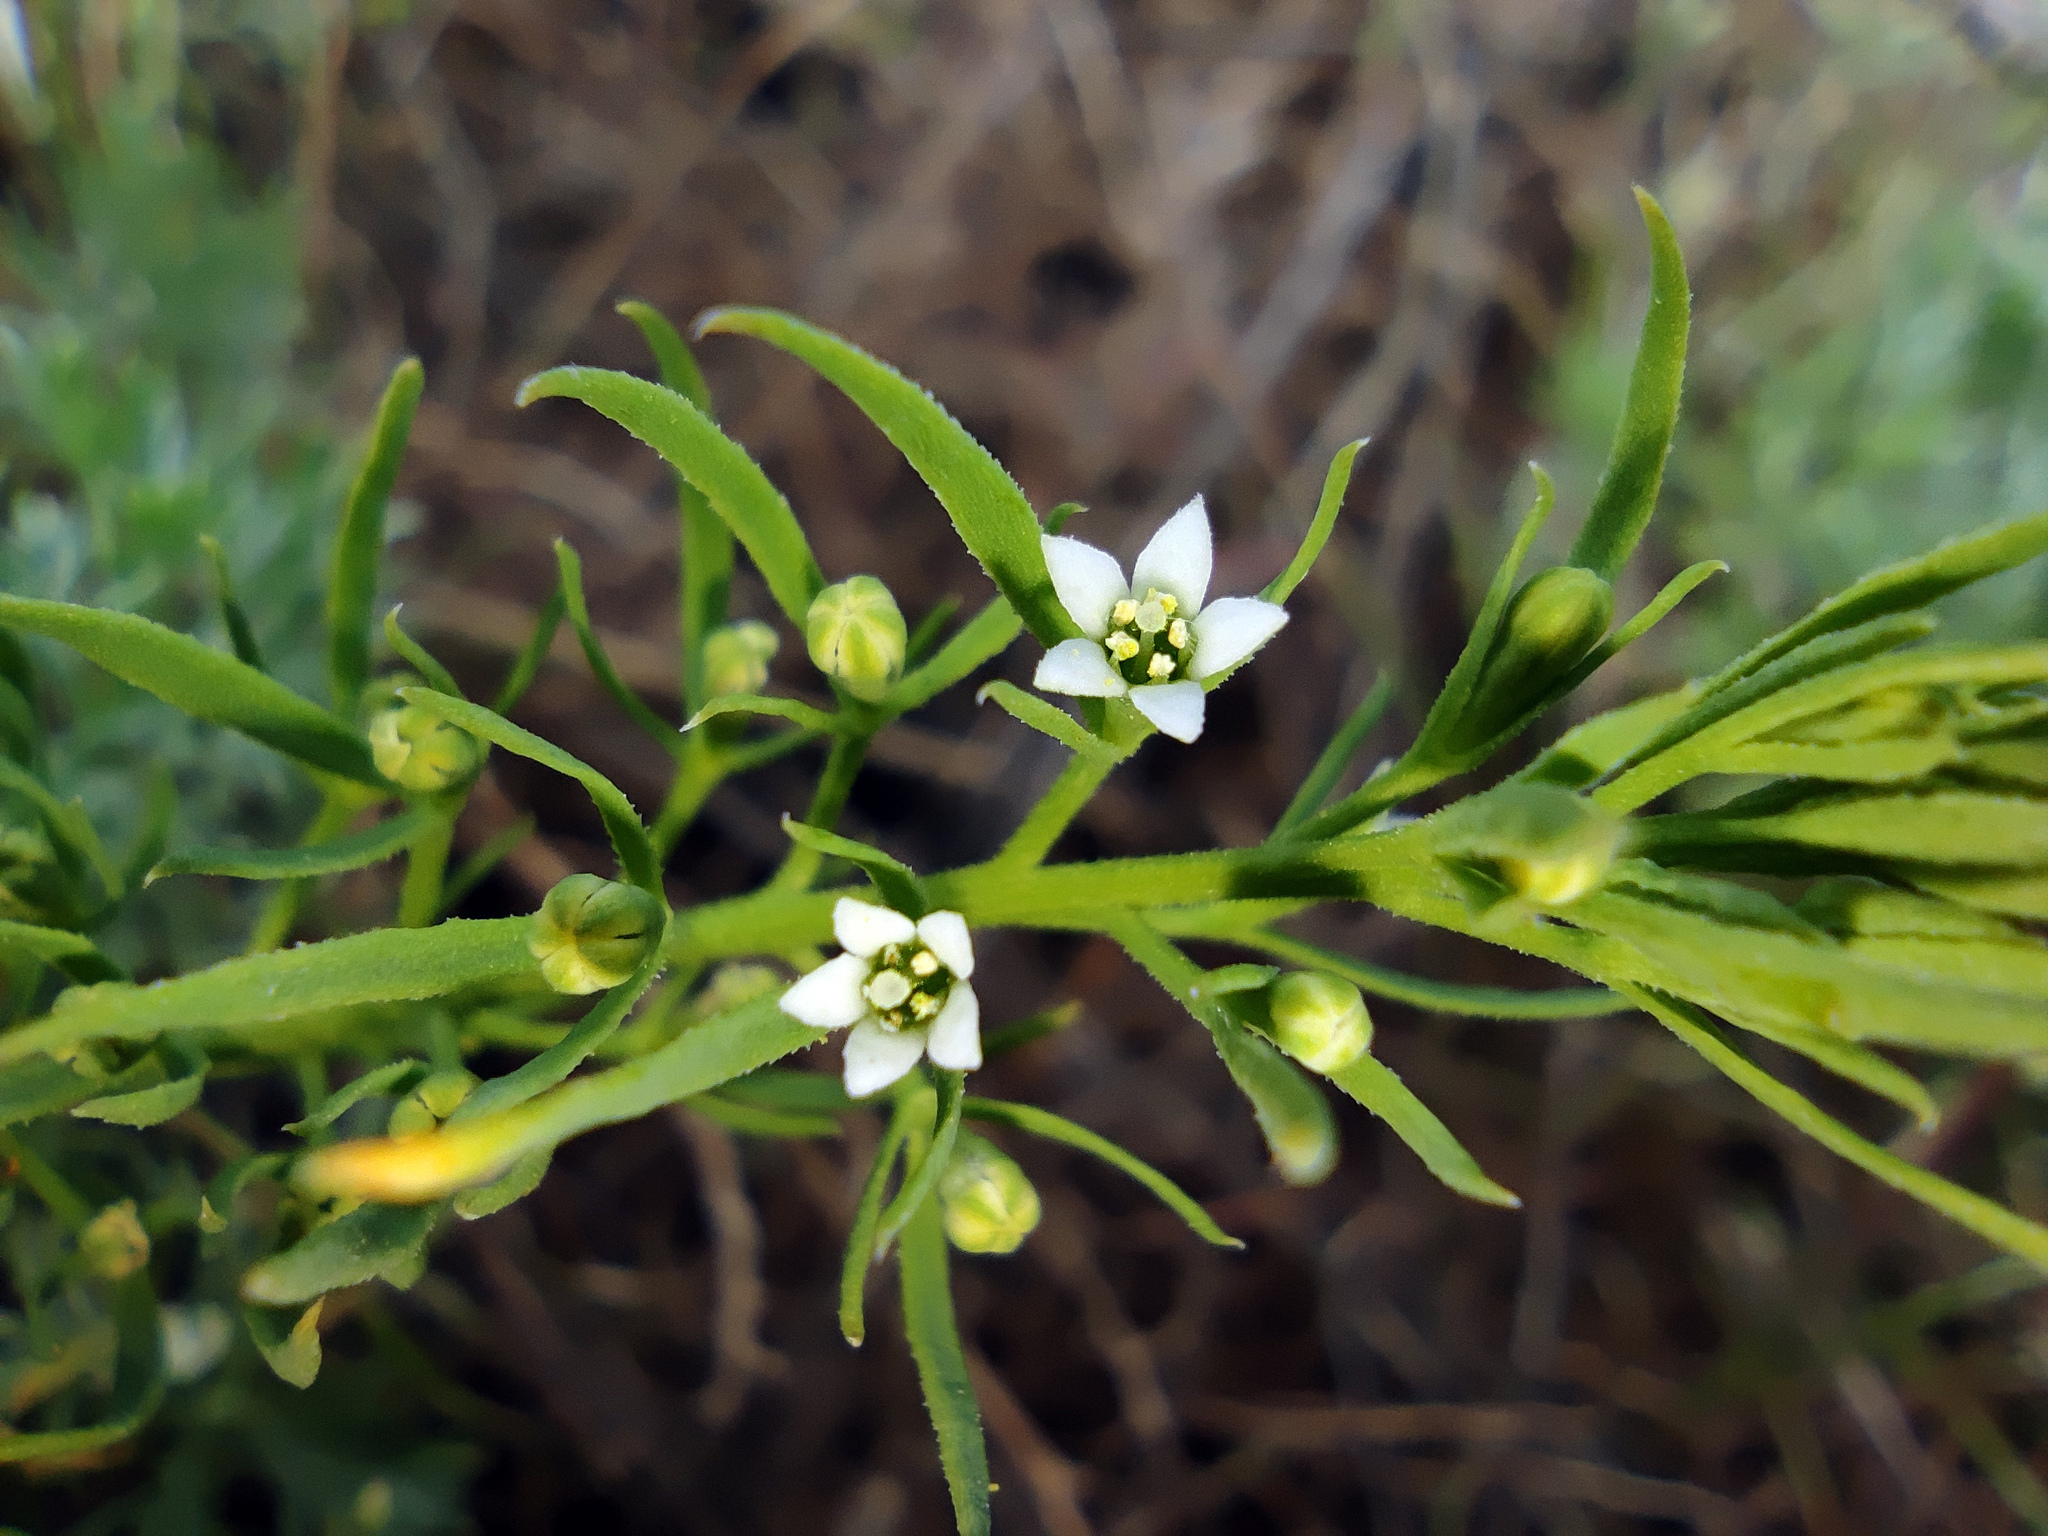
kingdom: Plantae
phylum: Tracheophyta
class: Magnoliopsida
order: Santalales
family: Thesiaceae
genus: Thesium
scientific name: Thesium ramosum
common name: Field thesium
